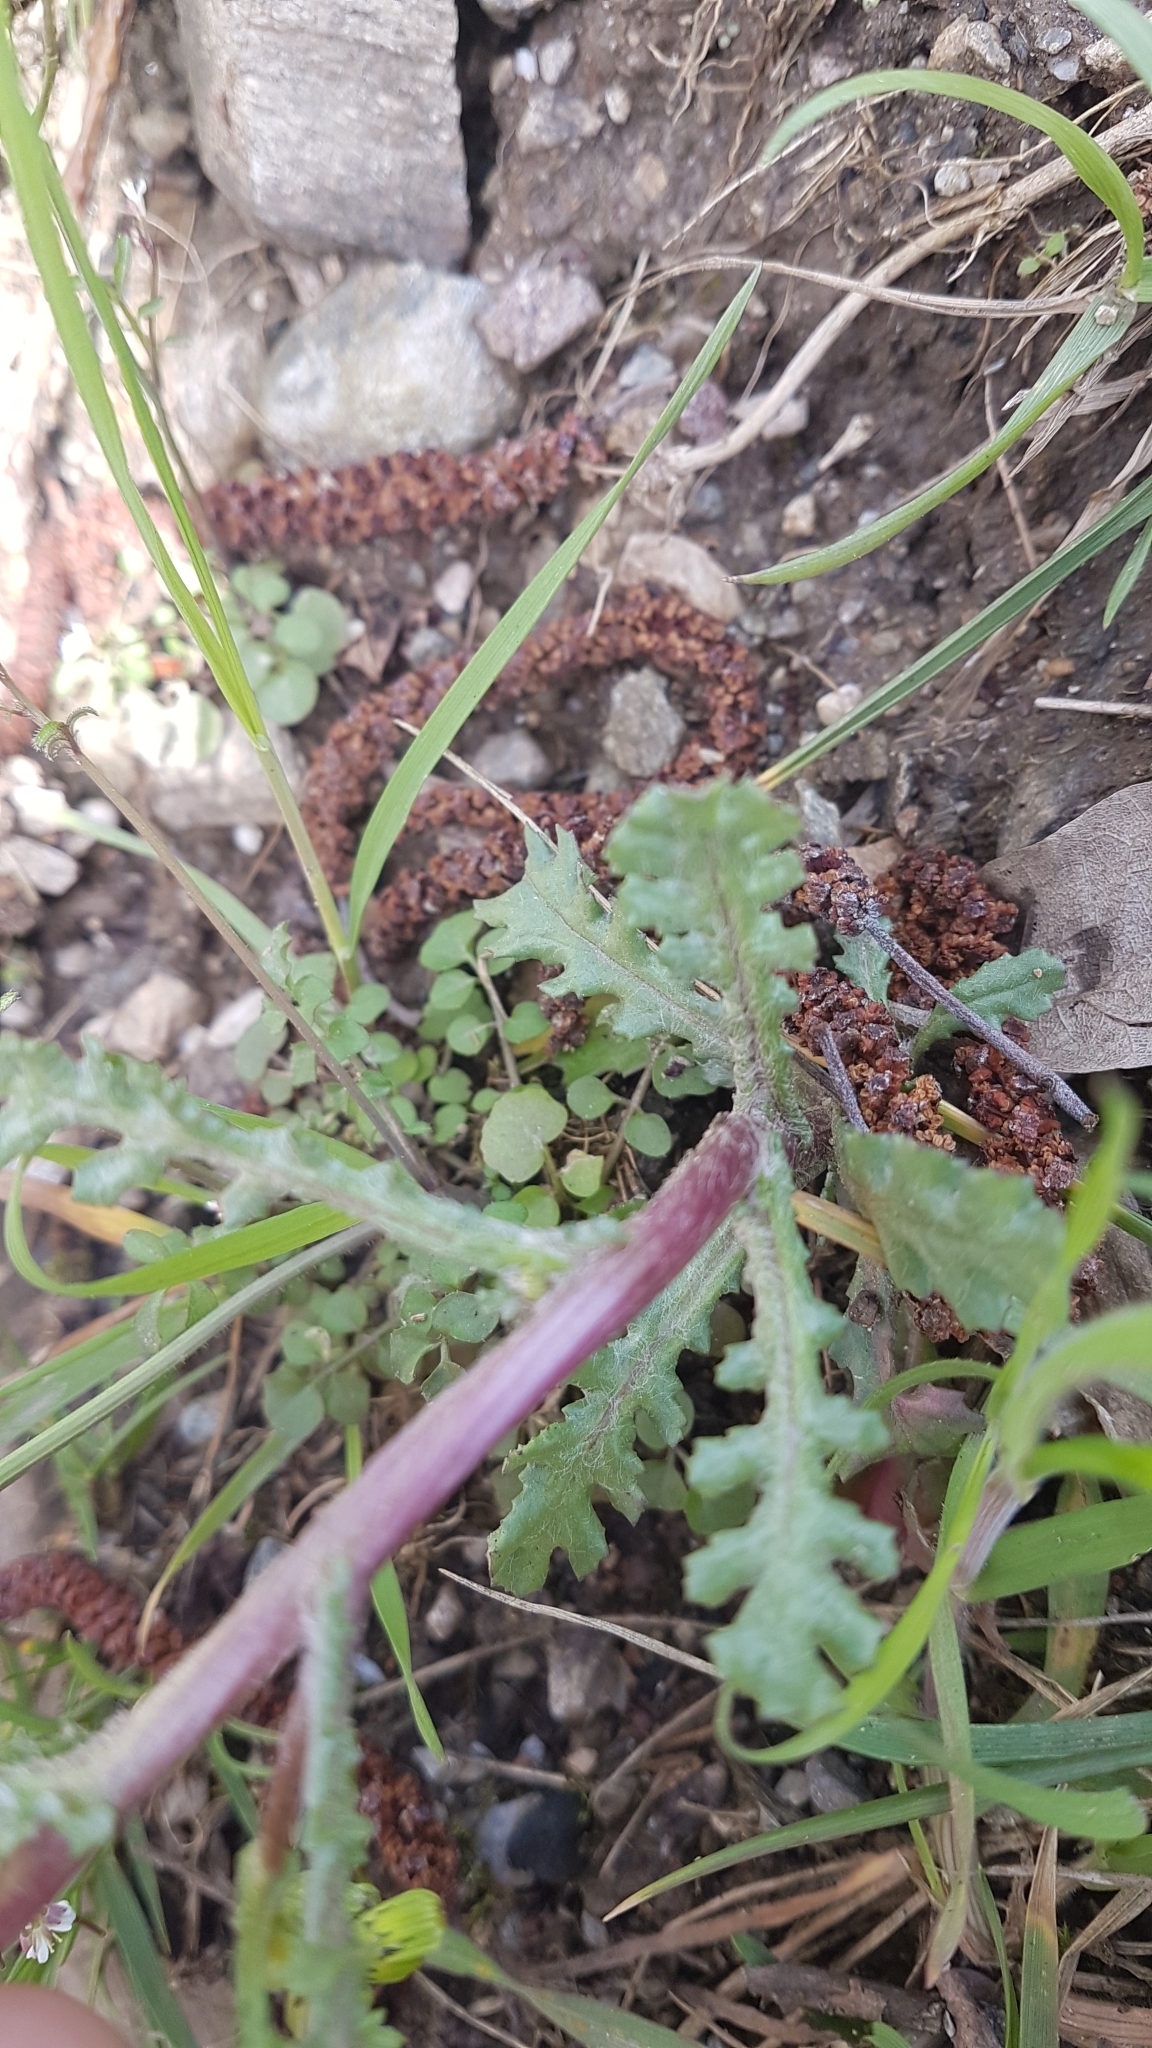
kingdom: Plantae
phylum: Tracheophyta
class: Magnoliopsida
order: Asterales
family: Asteraceae
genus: Senecio
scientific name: Senecio vulgaris
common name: Old-man-in-the-spring
